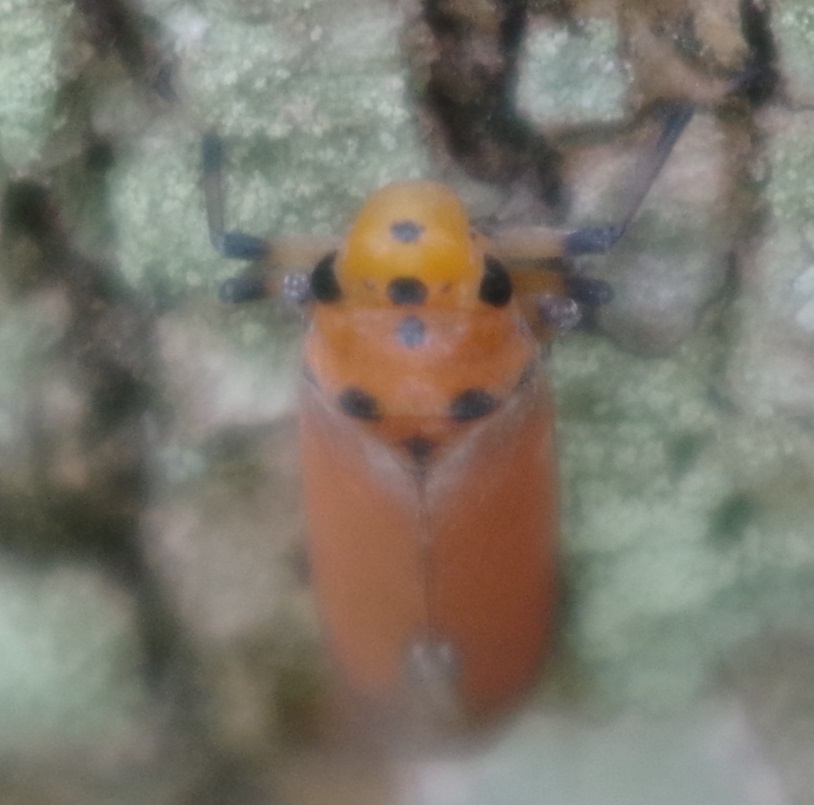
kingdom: Animalia
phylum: Arthropoda
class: Insecta
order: Hemiptera
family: Cicadellidae
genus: Bothrogonia
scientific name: Bothrogonia addita
